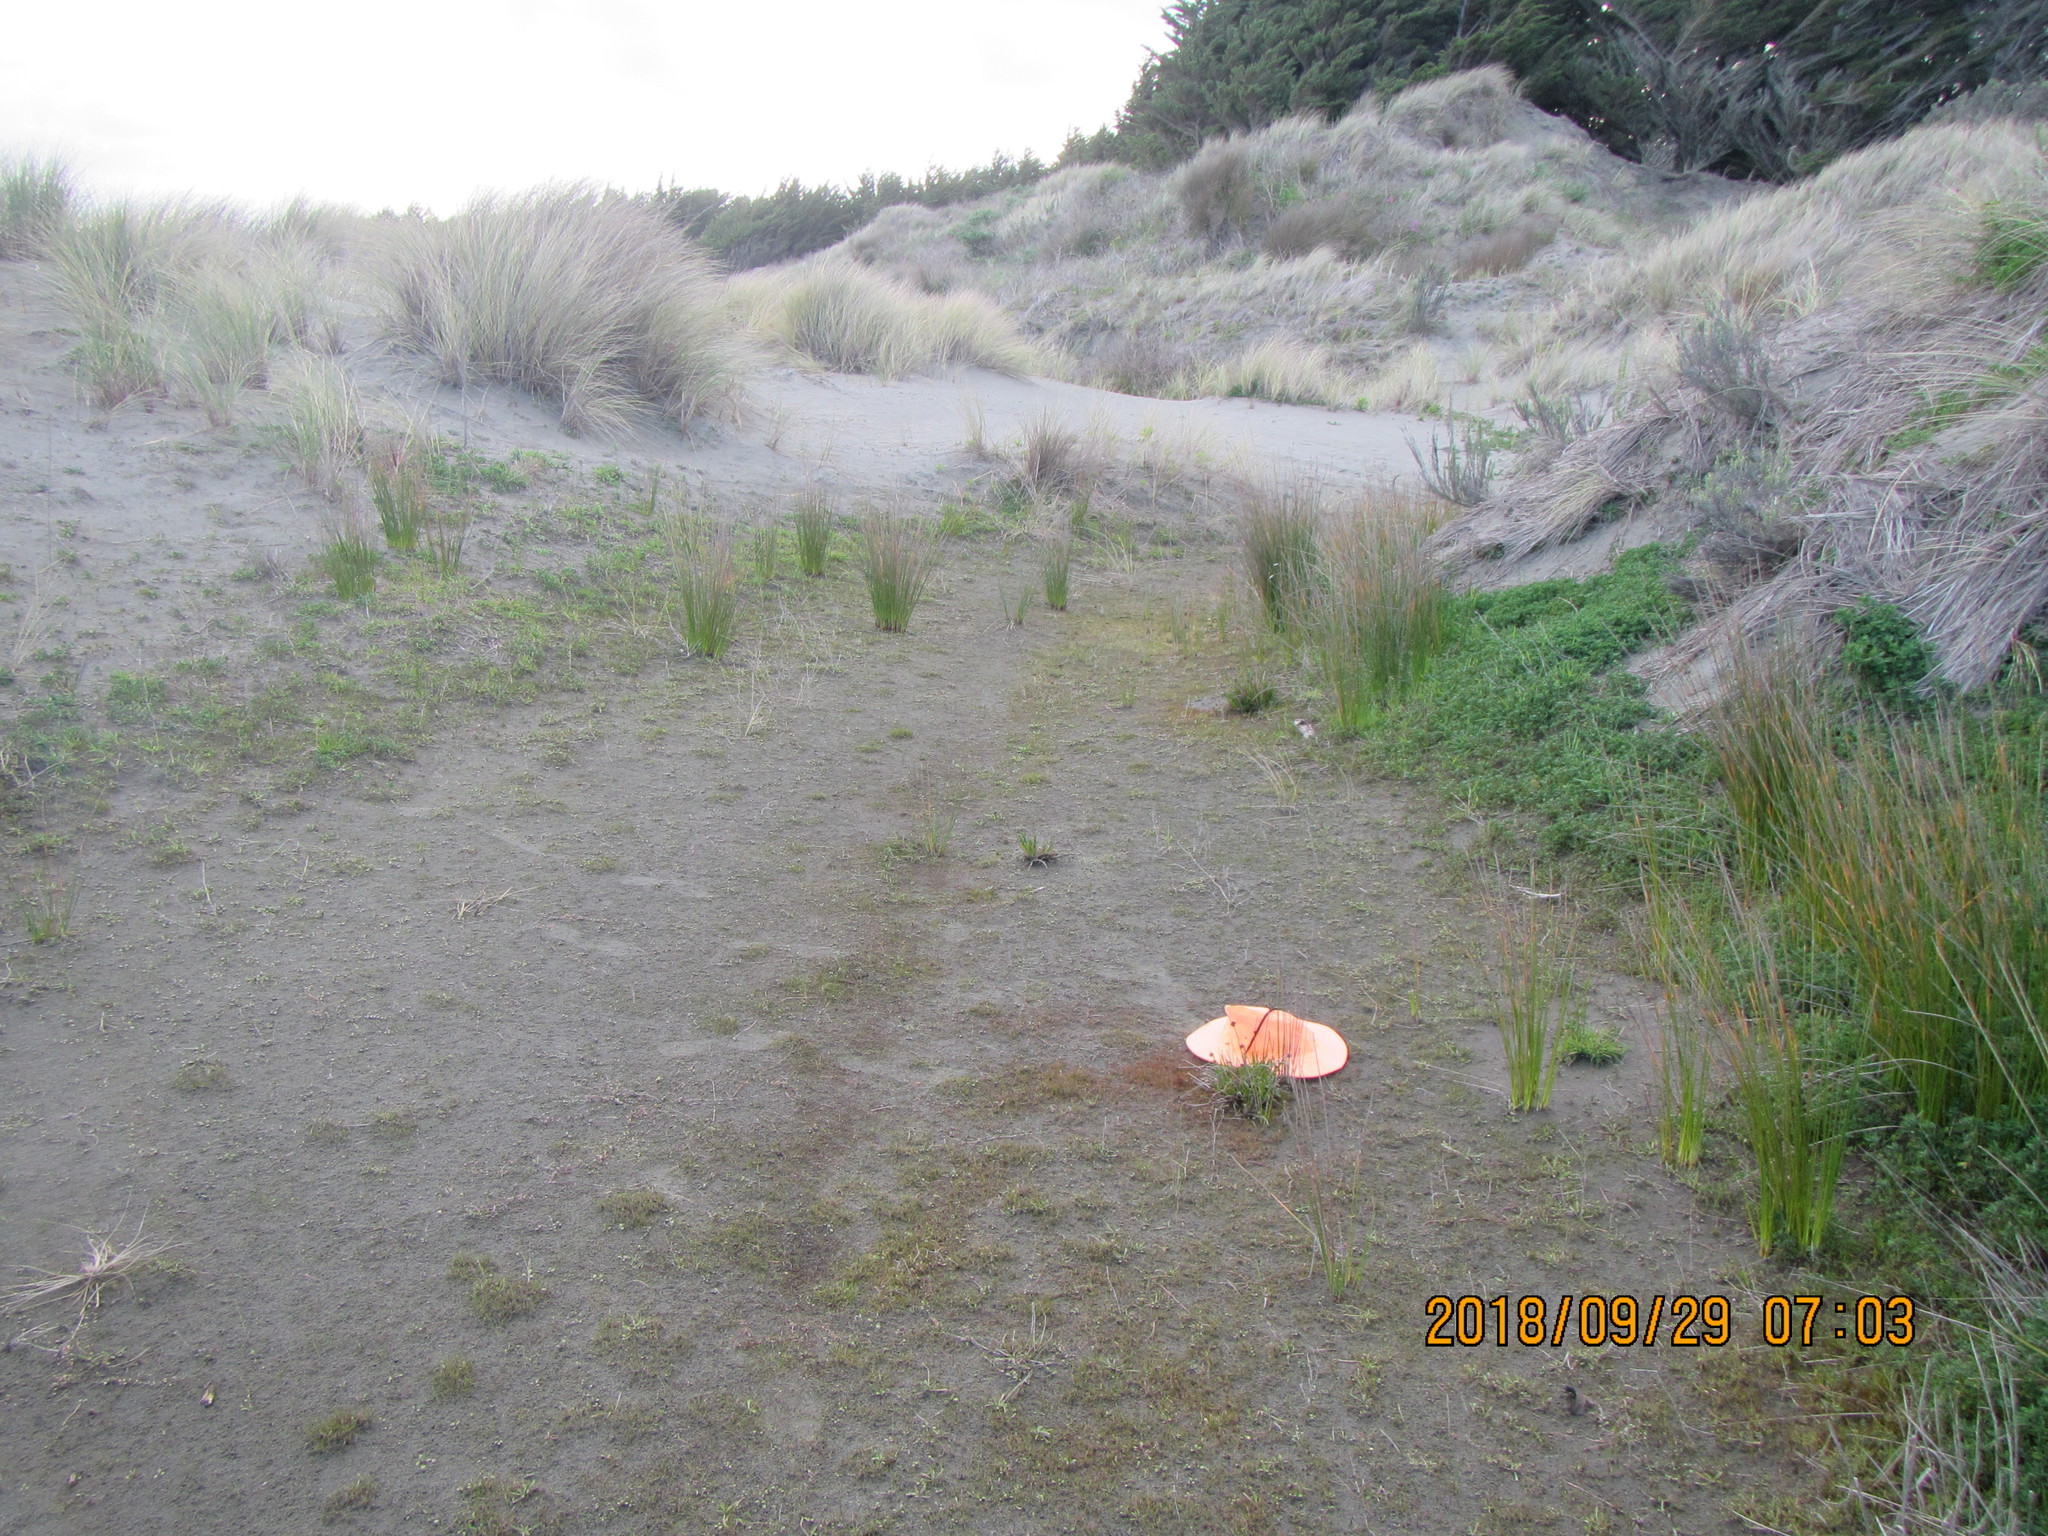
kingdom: Plantae
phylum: Tracheophyta
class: Liliopsida
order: Poales
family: Juncaceae
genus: Juncus
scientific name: Juncus caespiticius
